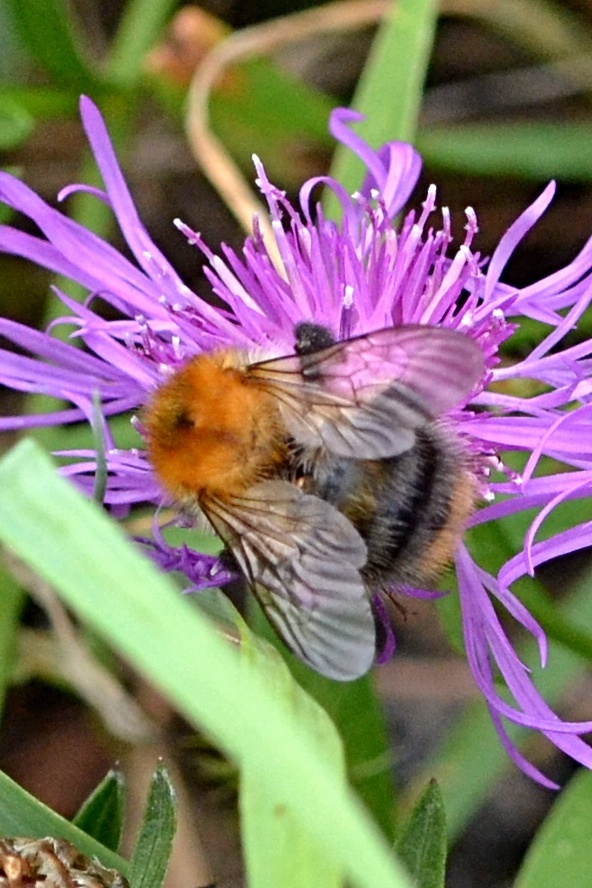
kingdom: Animalia
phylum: Arthropoda
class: Insecta
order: Hymenoptera
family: Apidae
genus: Bombus
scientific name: Bombus pascuorum
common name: Common carder bee
